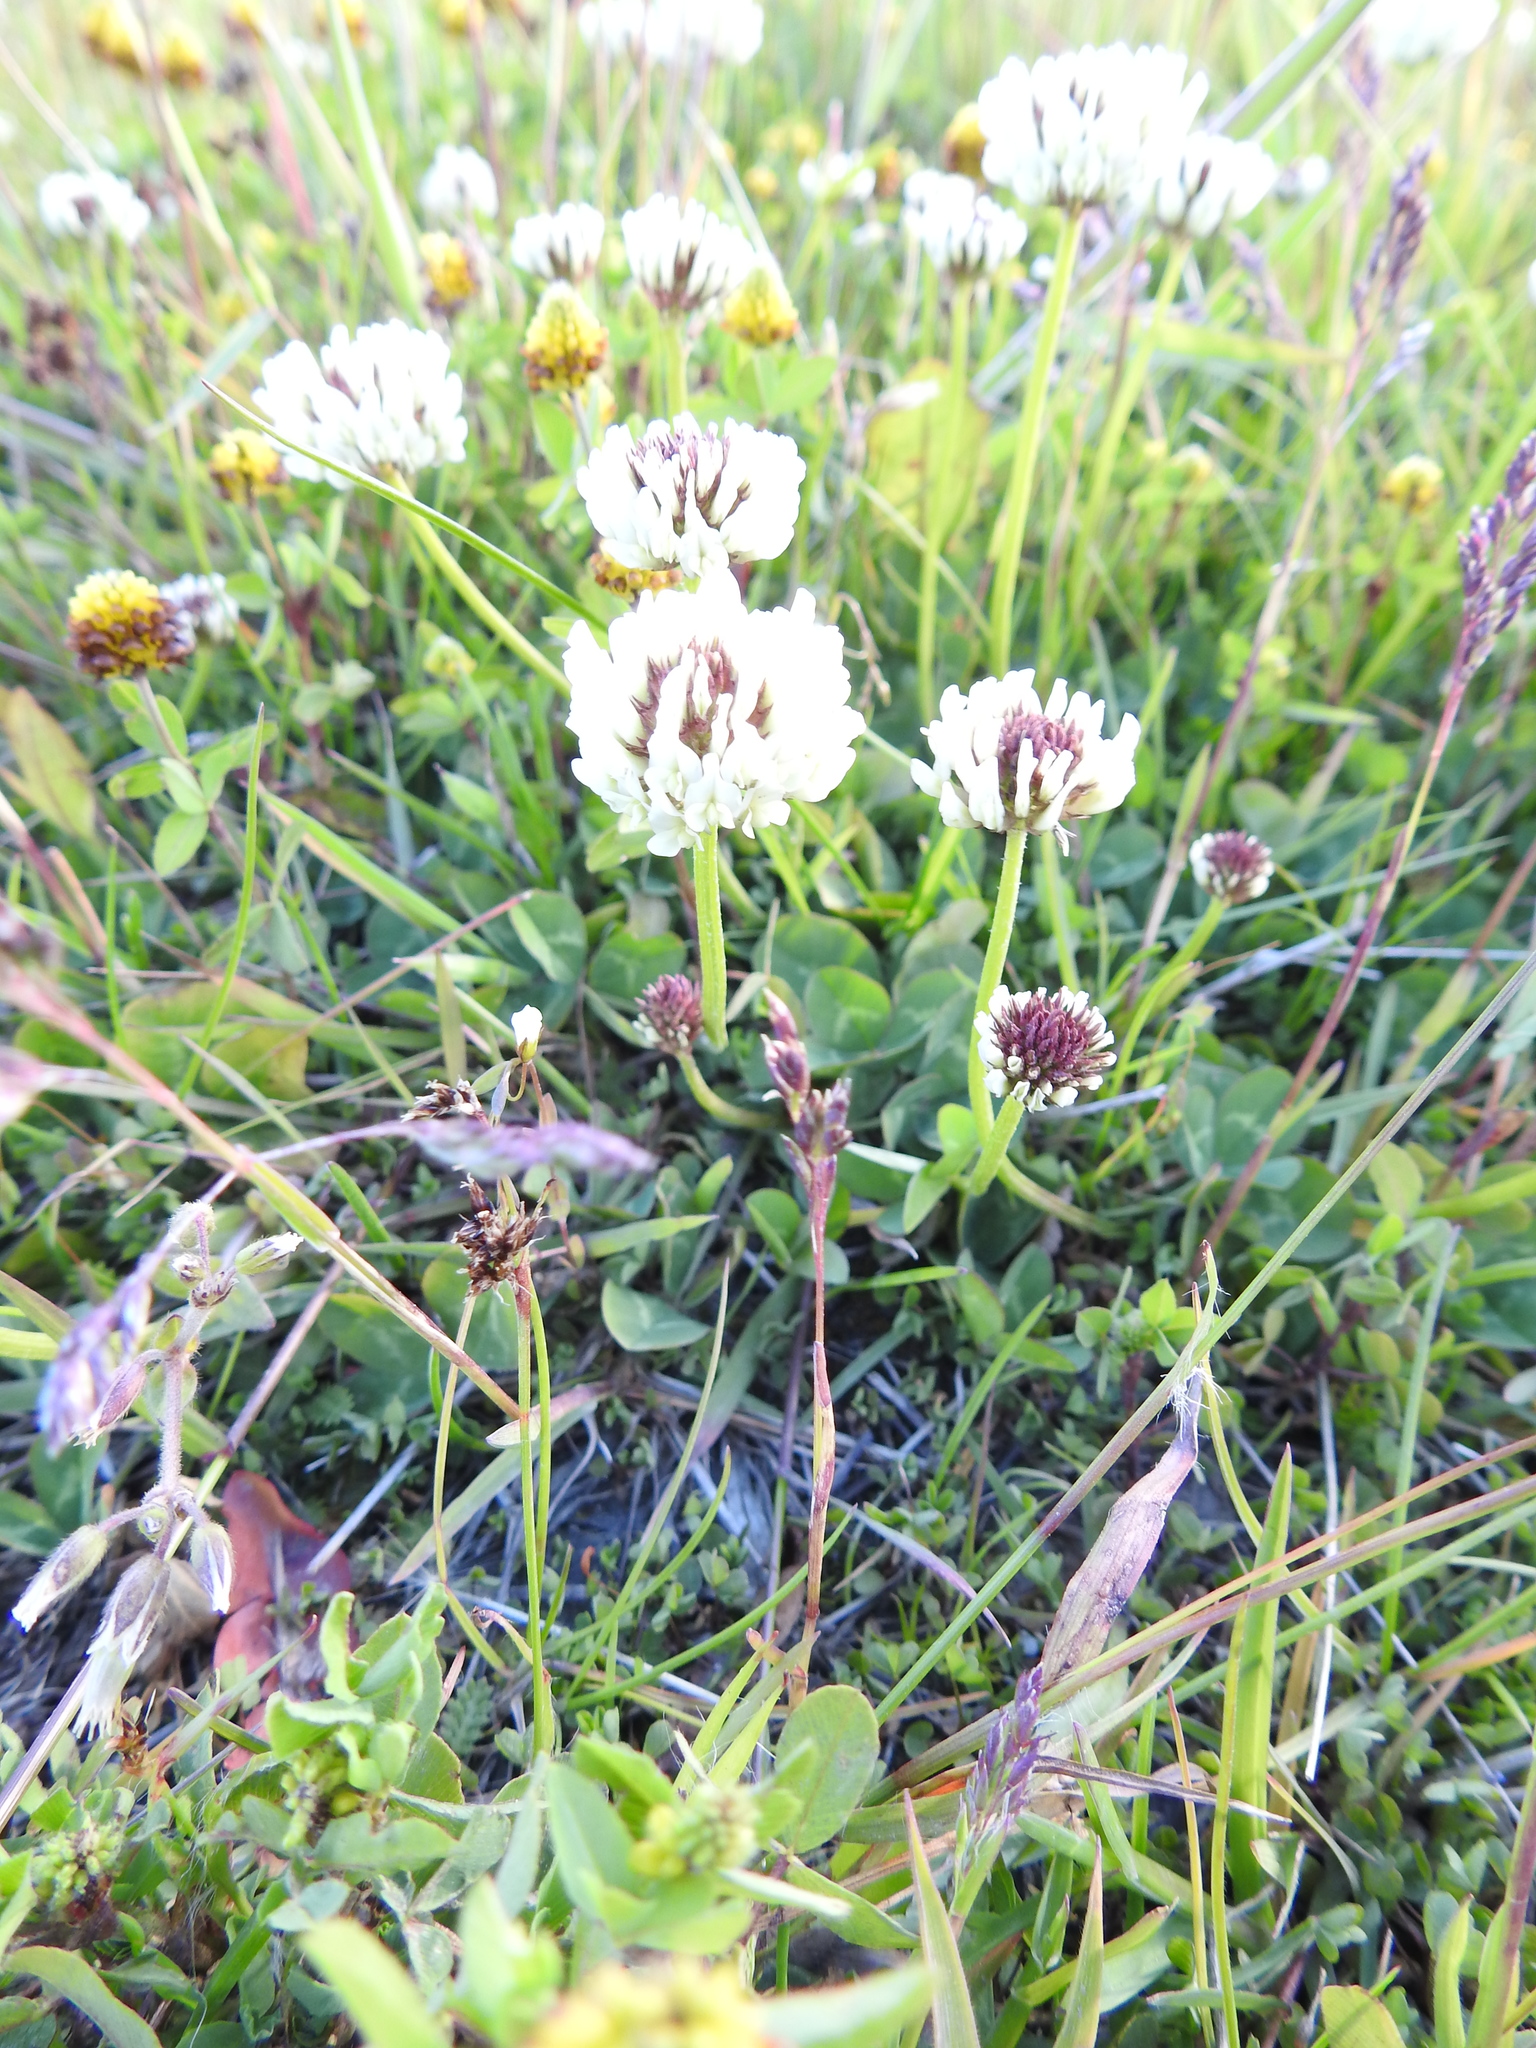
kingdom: Plantae
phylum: Tracheophyta
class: Magnoliopsida
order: Fabales
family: Fabaceae
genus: Trifolium
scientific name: Trifolium repens
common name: White clover
